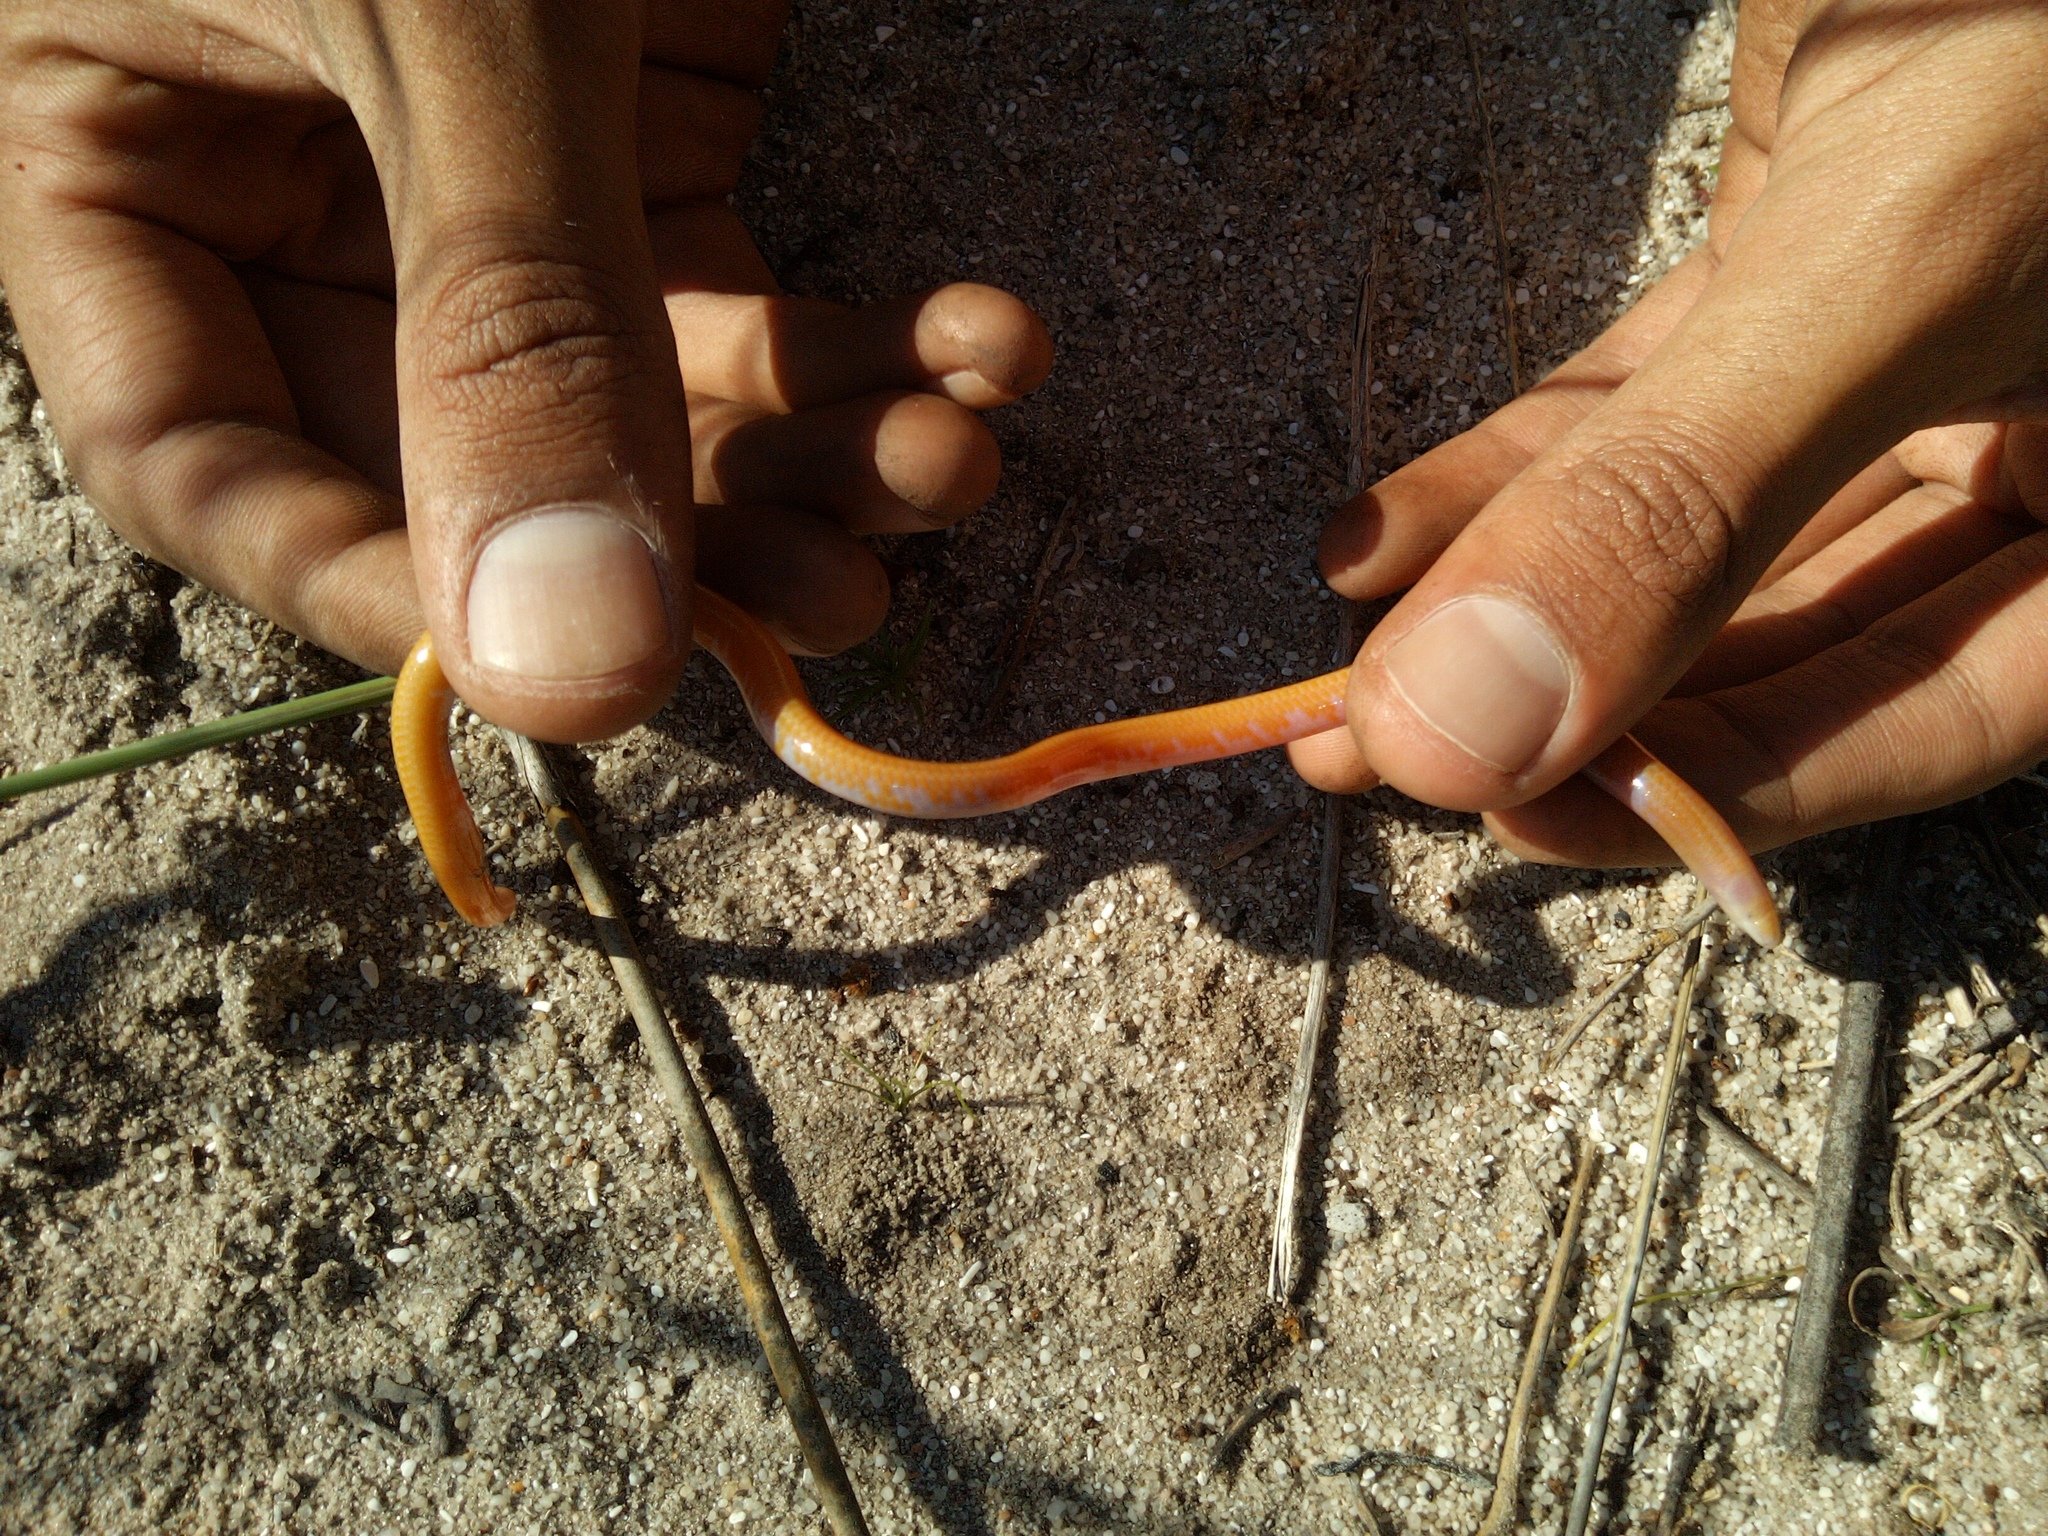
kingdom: Animalia
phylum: Chordata
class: Squamata
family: Scincidae
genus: Typhlosaurus
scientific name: Typhlosaurus caecus
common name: Cuvier's legless skink
